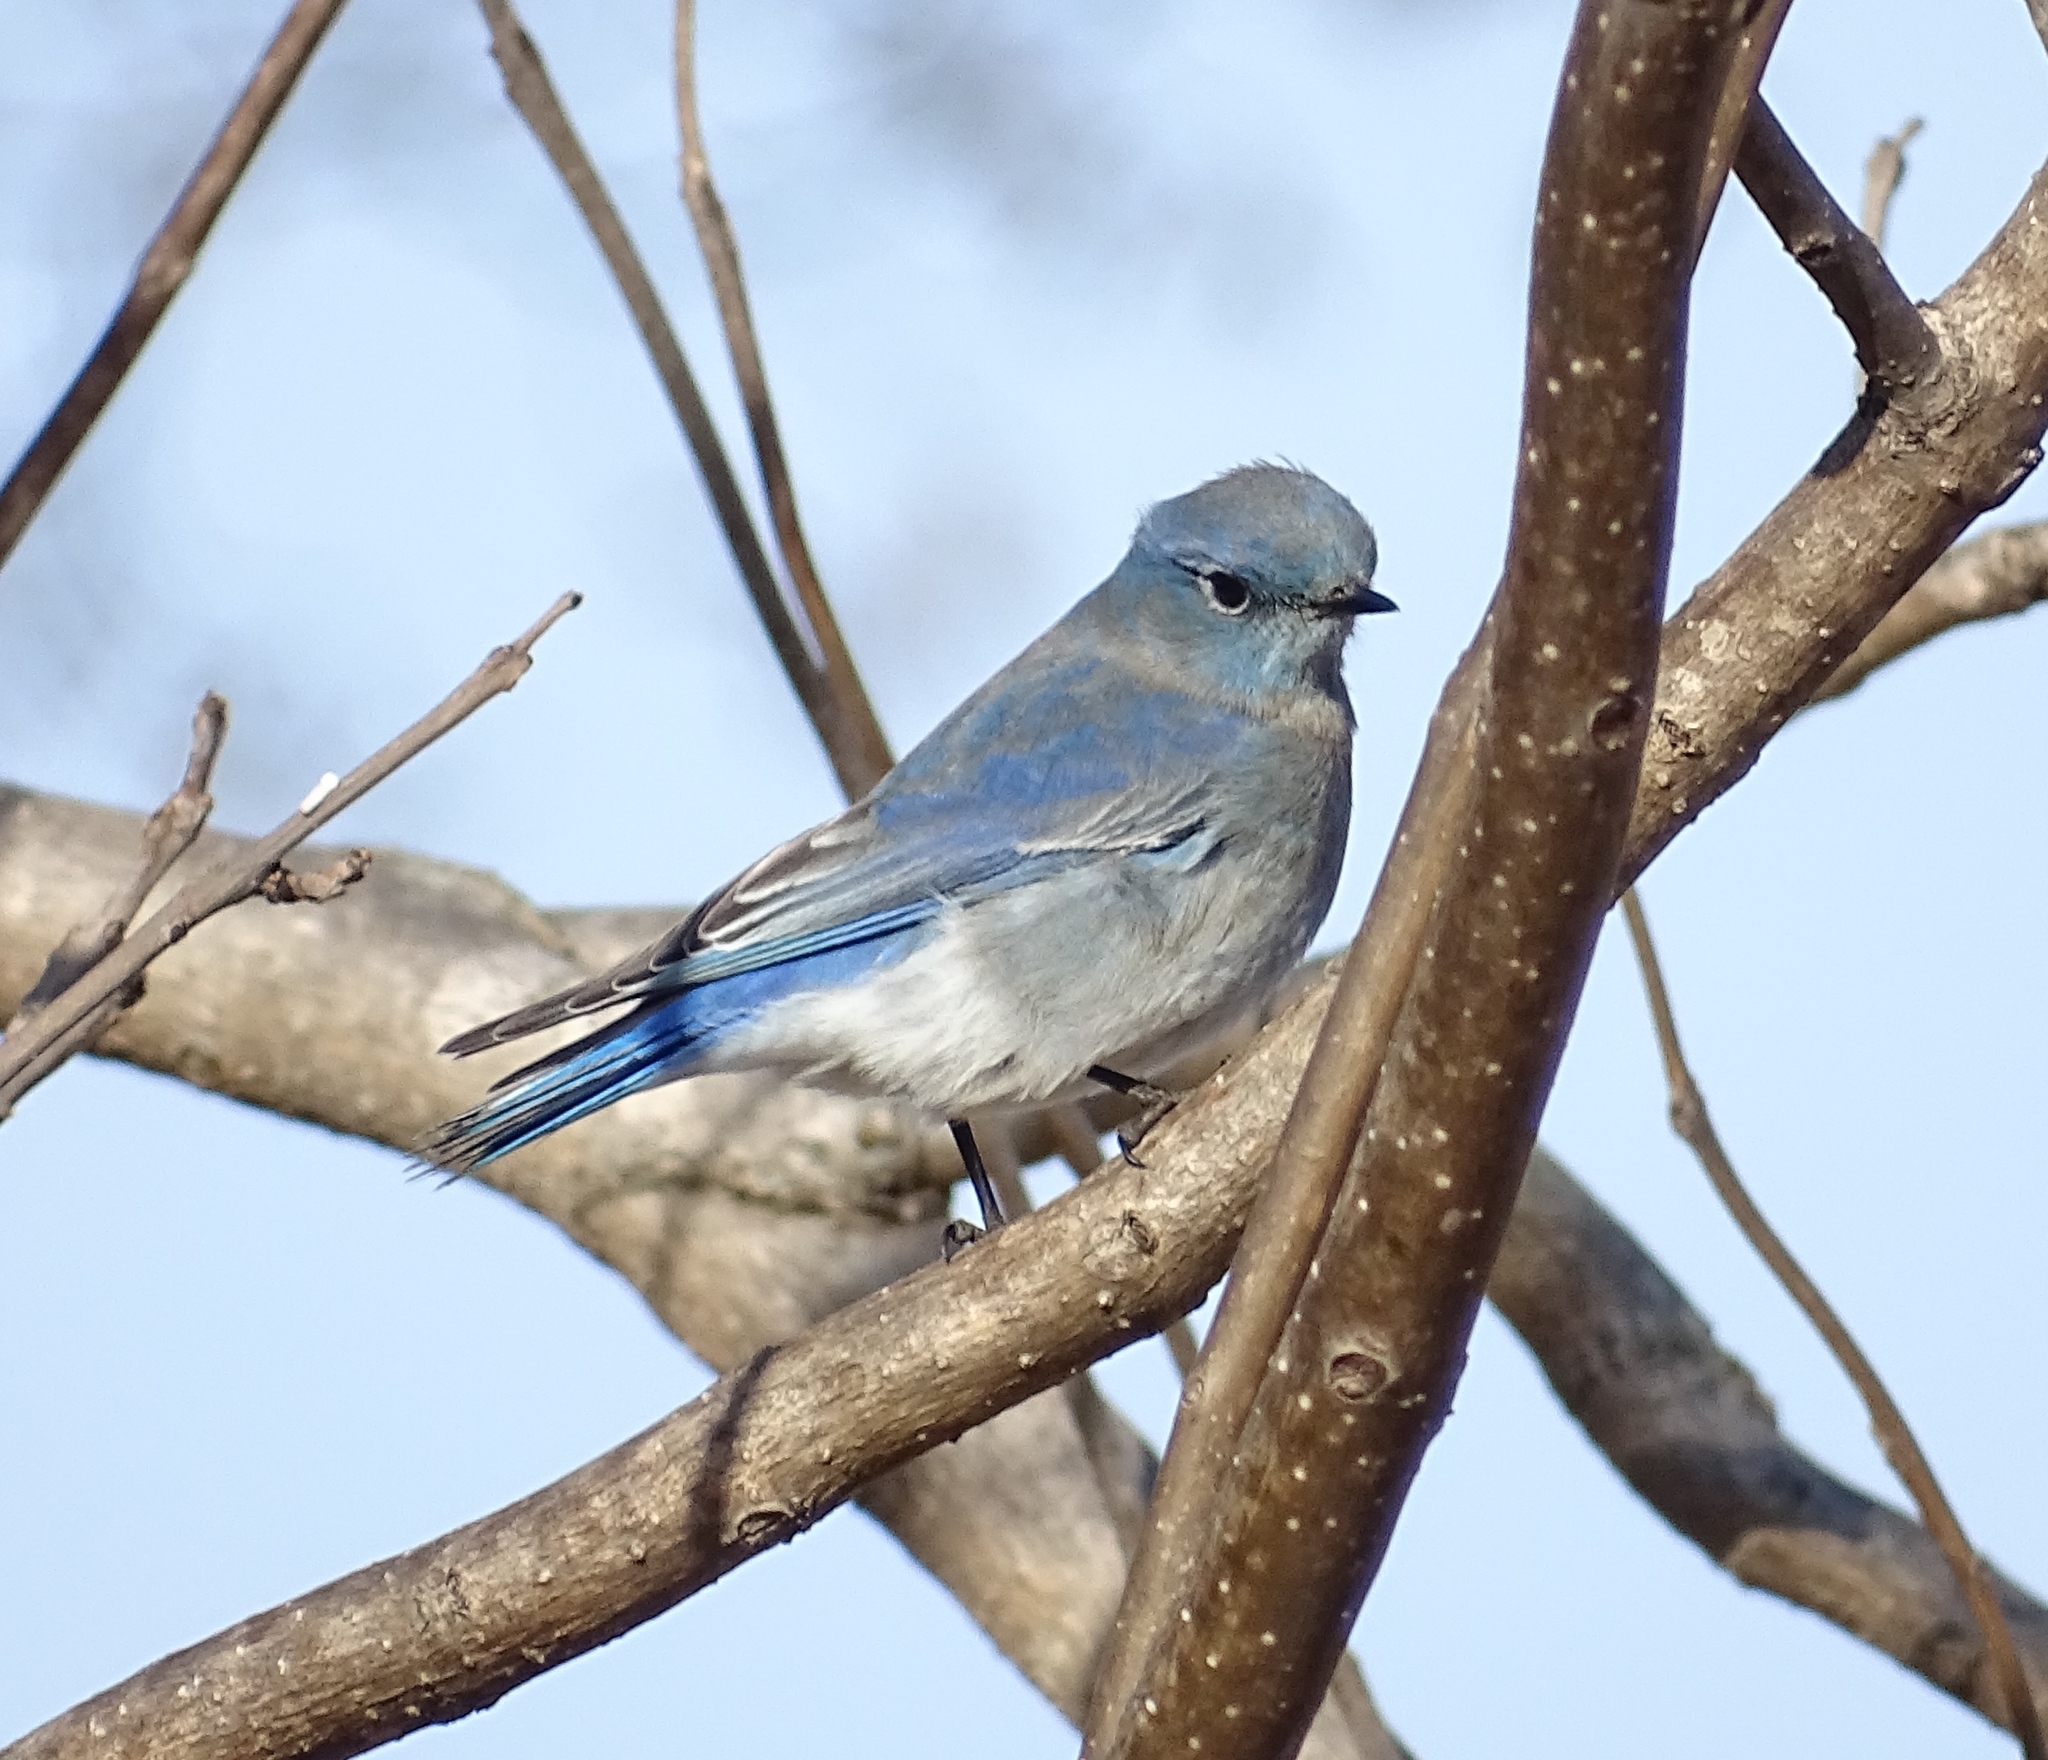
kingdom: Animalia
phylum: Chordata
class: Aves
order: Passeriformes
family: Turdidae
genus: Sialia
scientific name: Sialia currucoides
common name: Mountain bluebird
